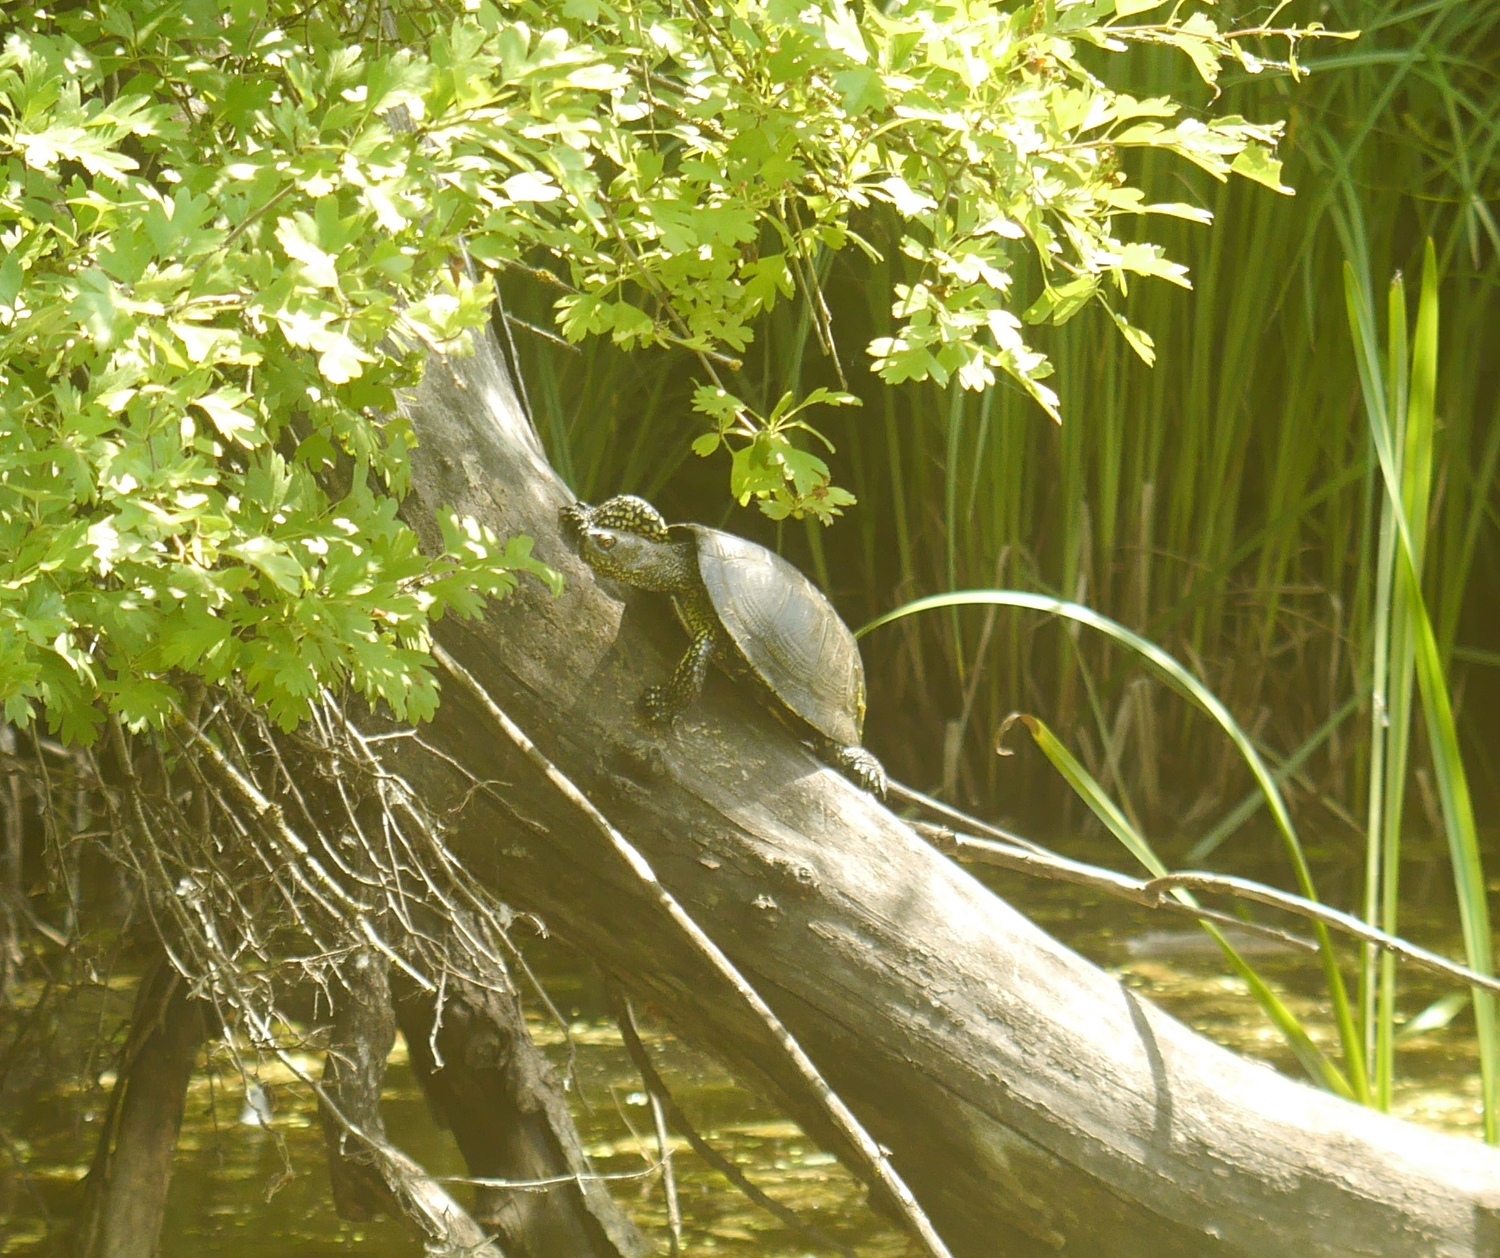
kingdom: Animalia
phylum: Chordata
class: Testudines
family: Emydidae
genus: Emys
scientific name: Emys orbicularis
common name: European pond turtle
